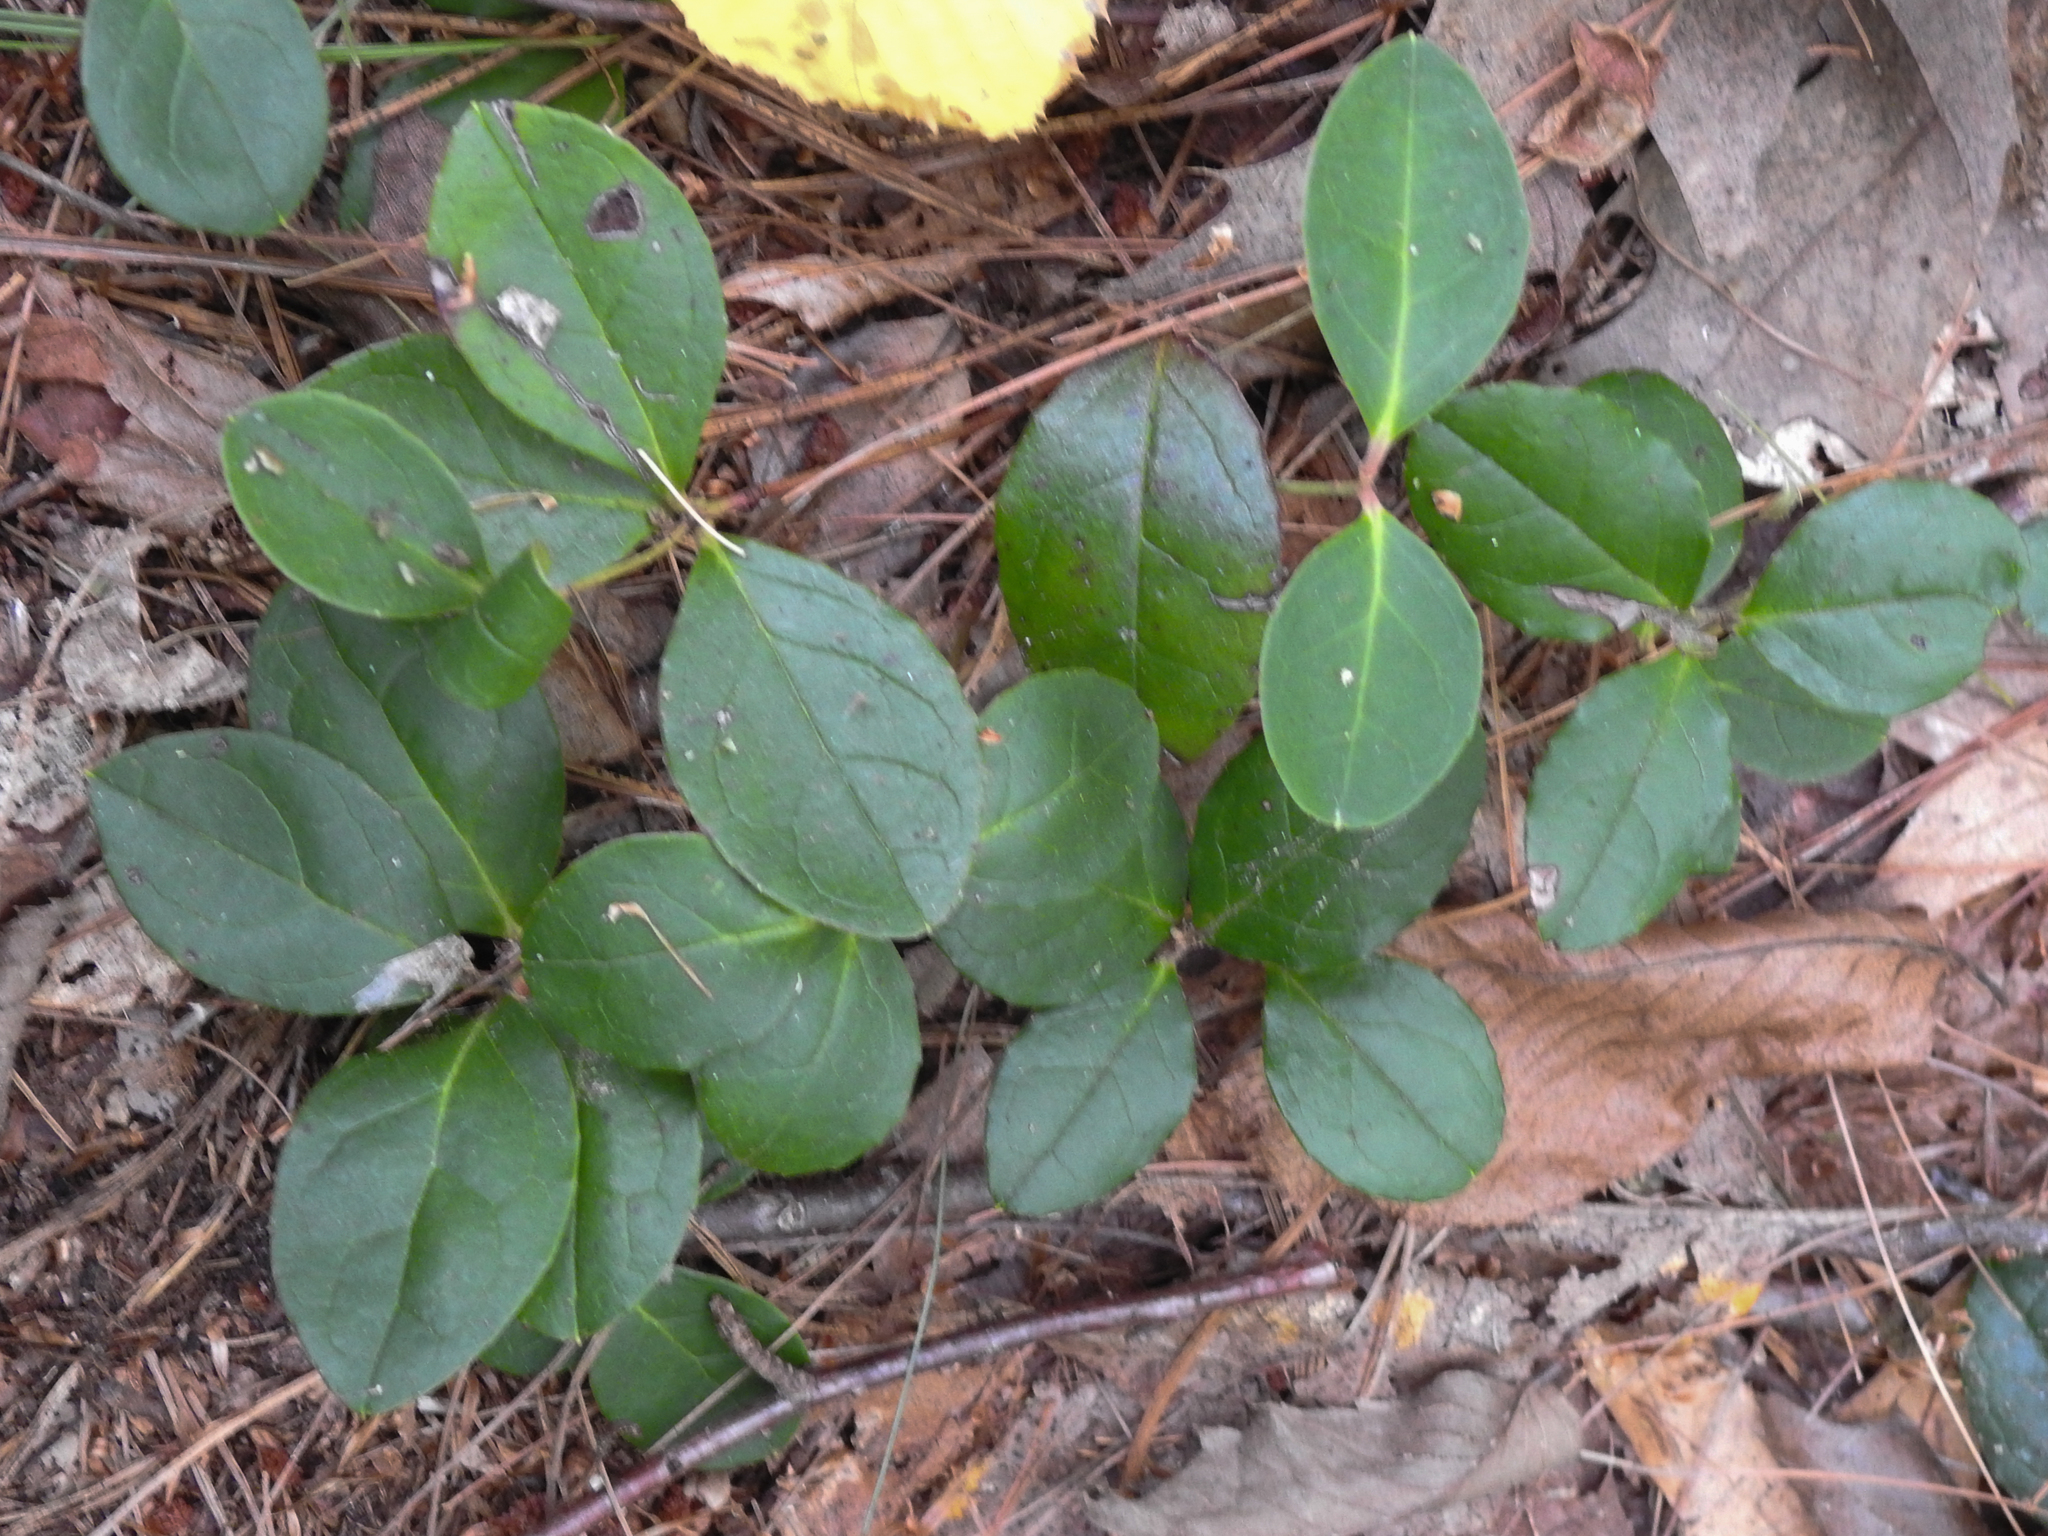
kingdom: Plantae
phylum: Tracheophyta
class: Magnoliopsida
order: Ericales
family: Ericaceae
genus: Gaultheria
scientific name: Gaultheria procumbens
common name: Checkerberry
